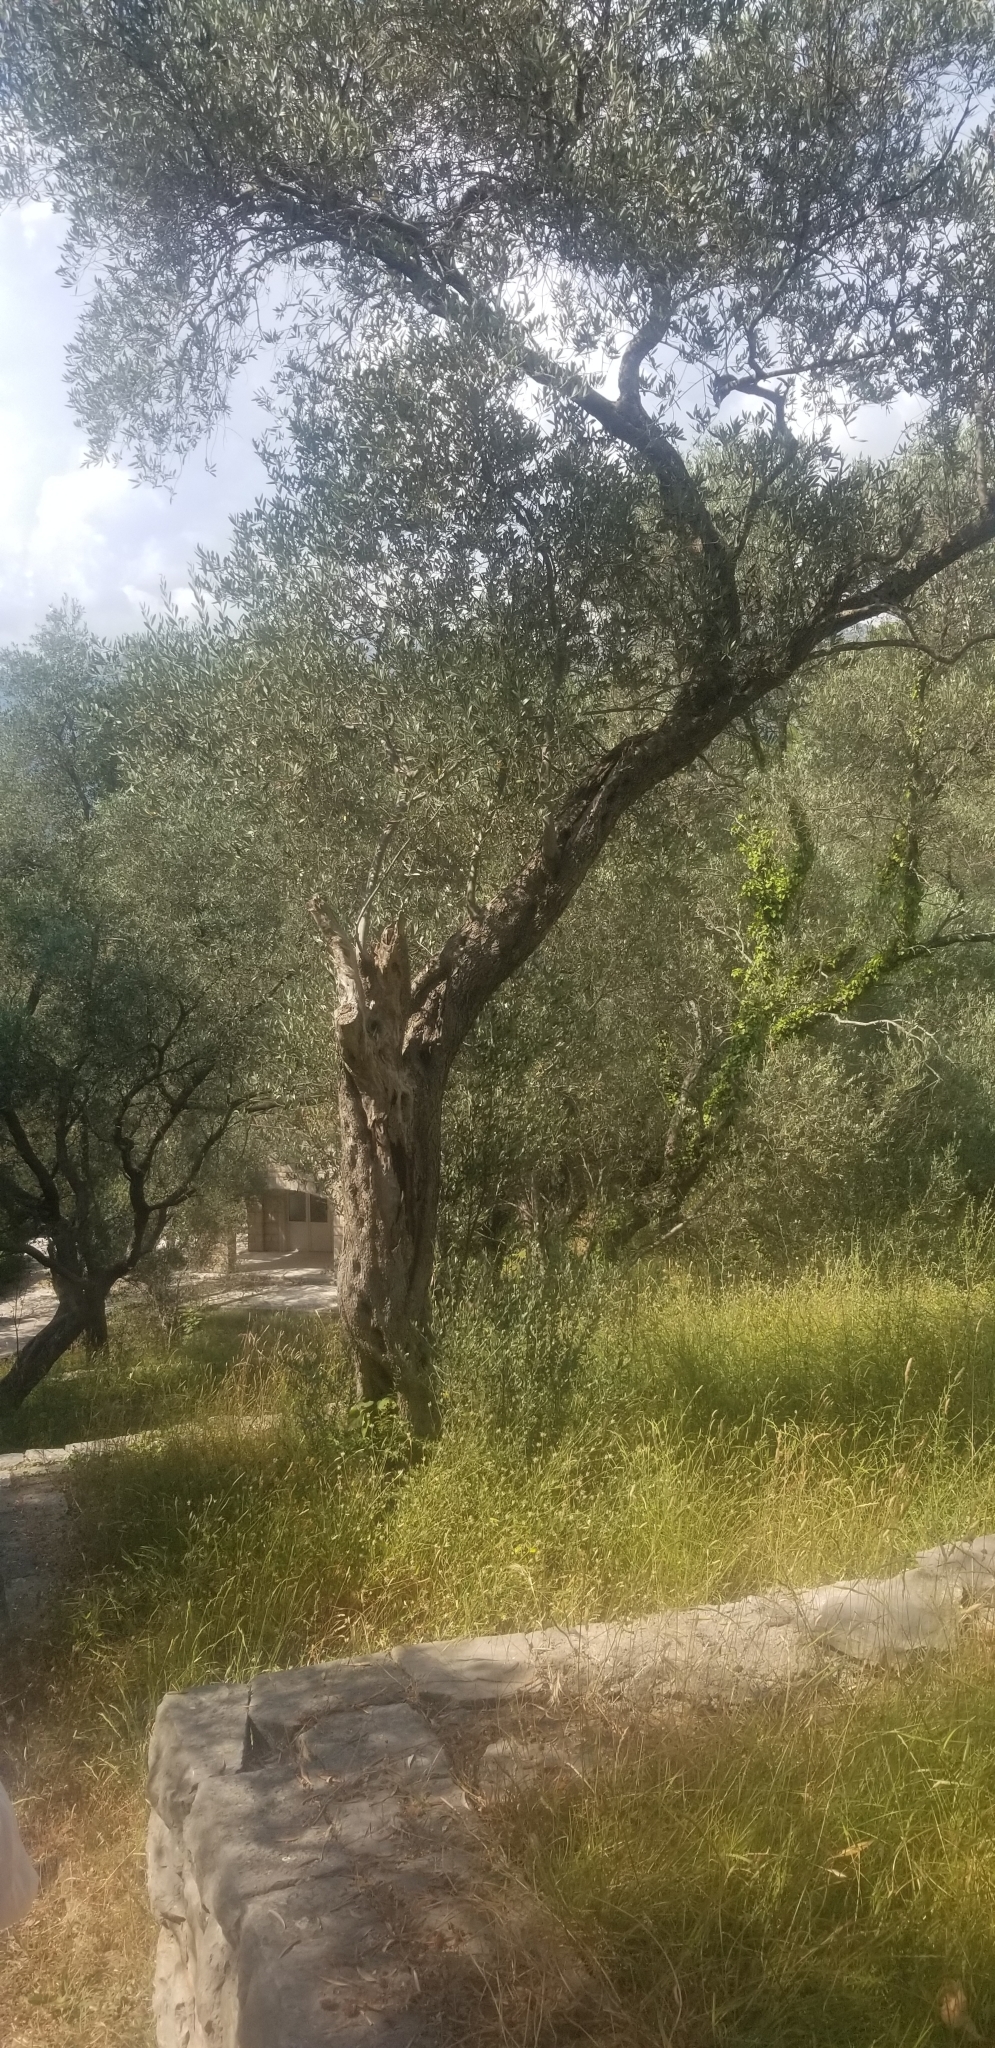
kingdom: Plantae
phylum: Tracheophyta
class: Magnoliopsida
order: Lamiales
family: Oleaceae
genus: Olea
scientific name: Olea europaea
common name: Olive
